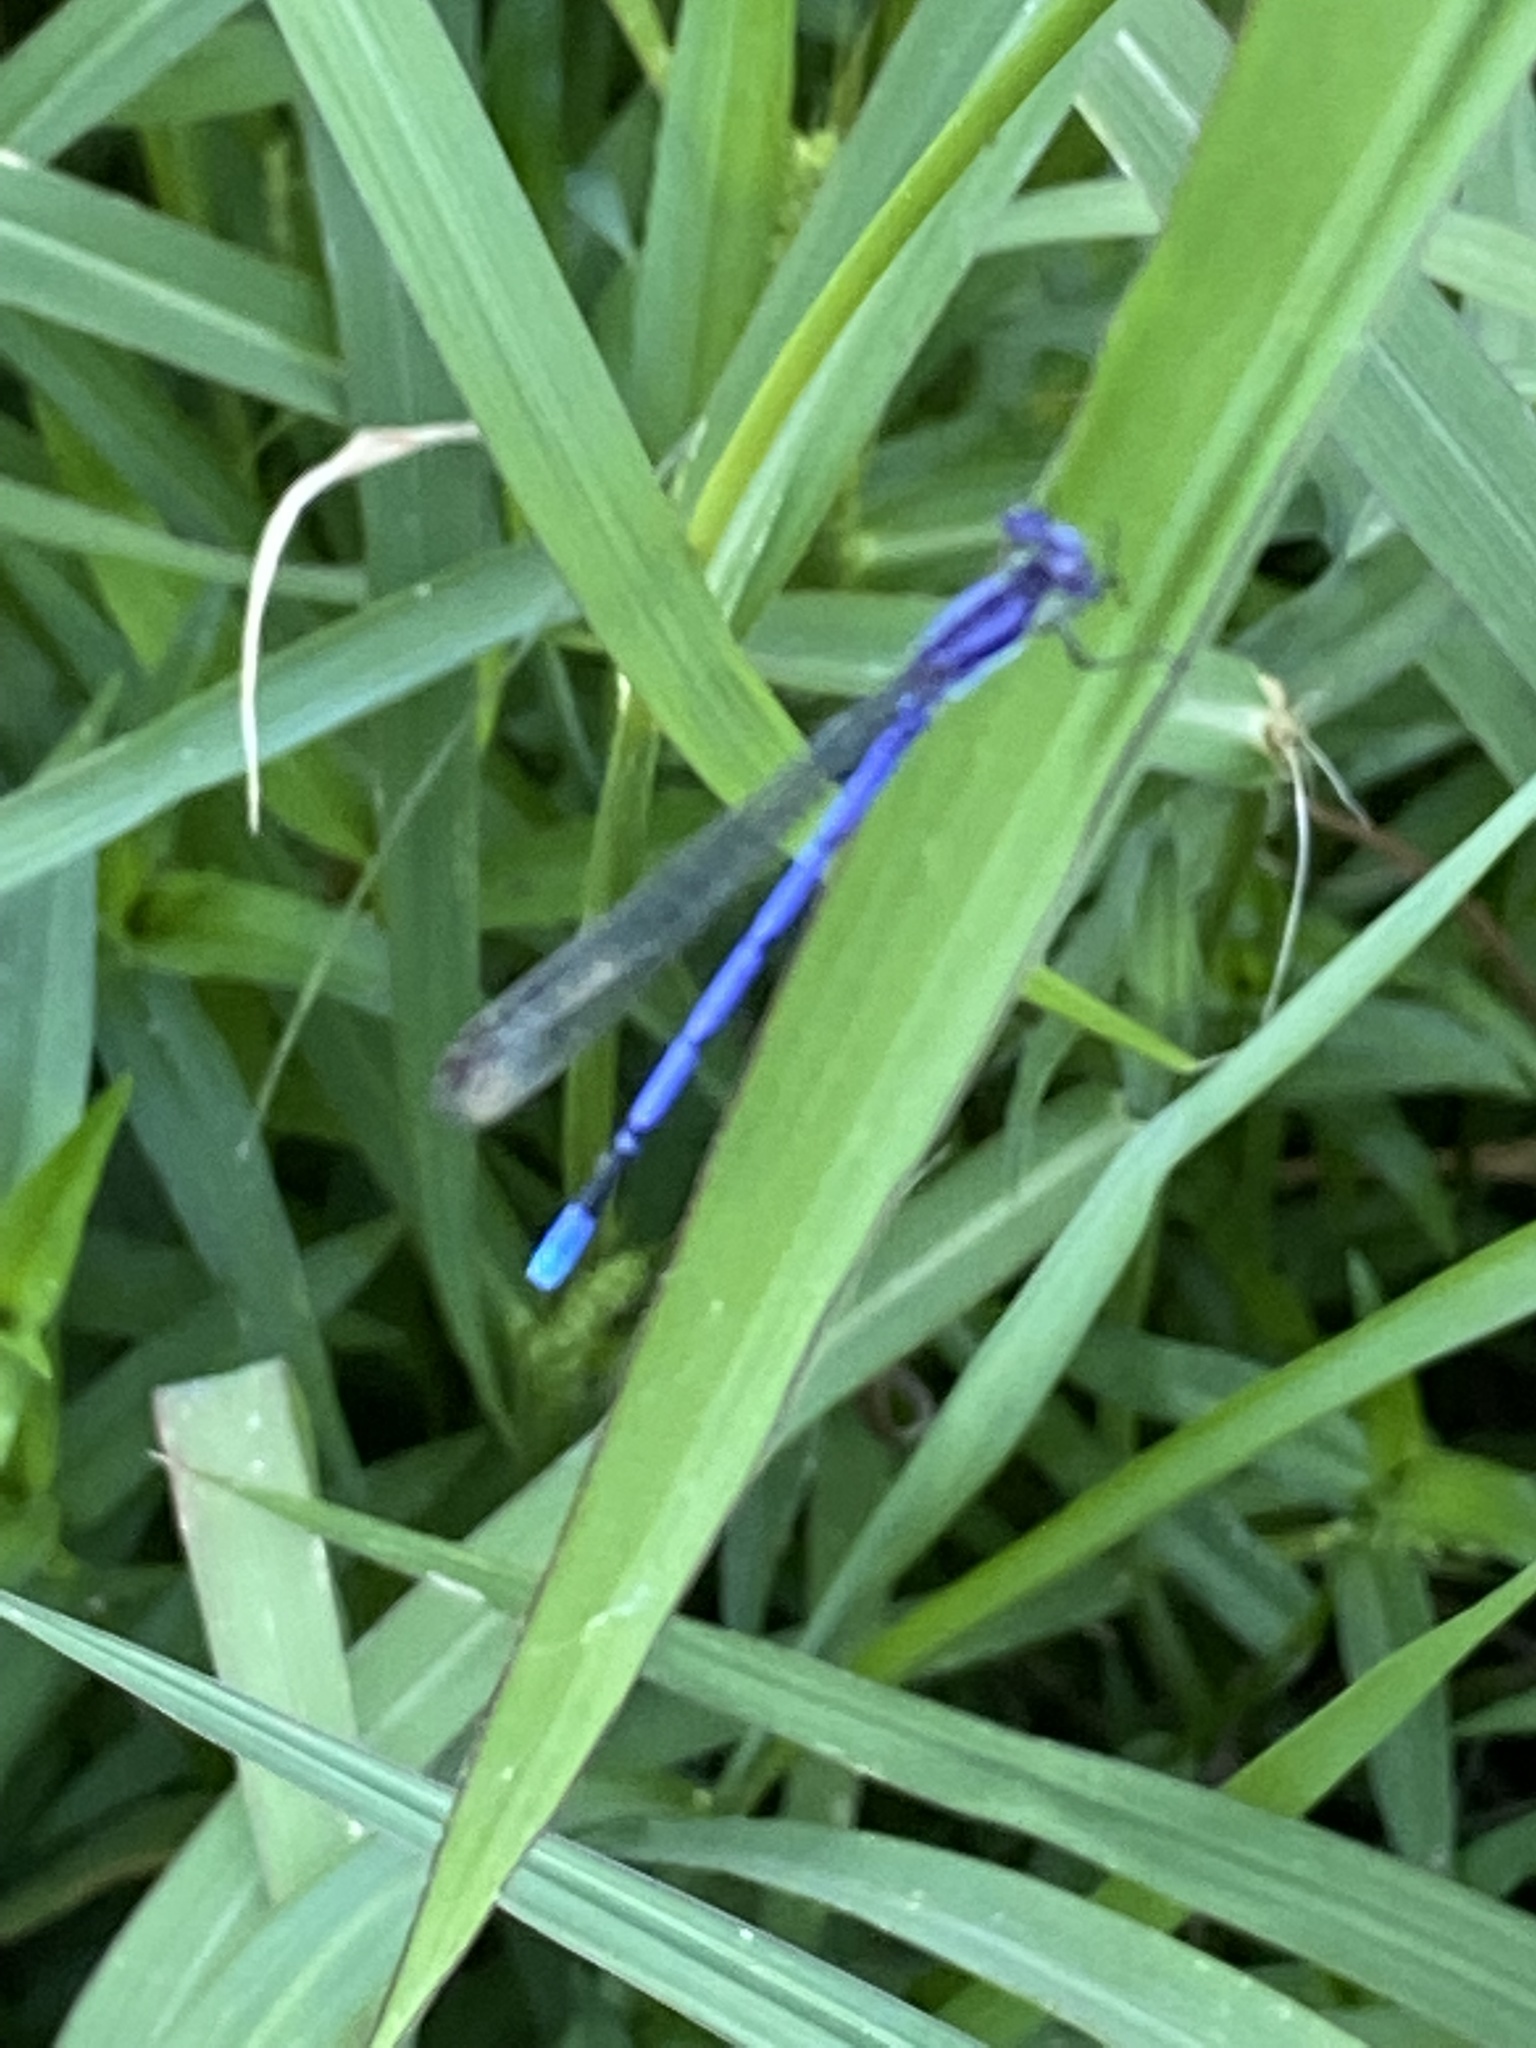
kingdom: Animalia
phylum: Arthropoda
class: Insecta
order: Odonata
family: Coenagrionidae
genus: Argia
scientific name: Argia fumipennis
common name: Variable dancer
